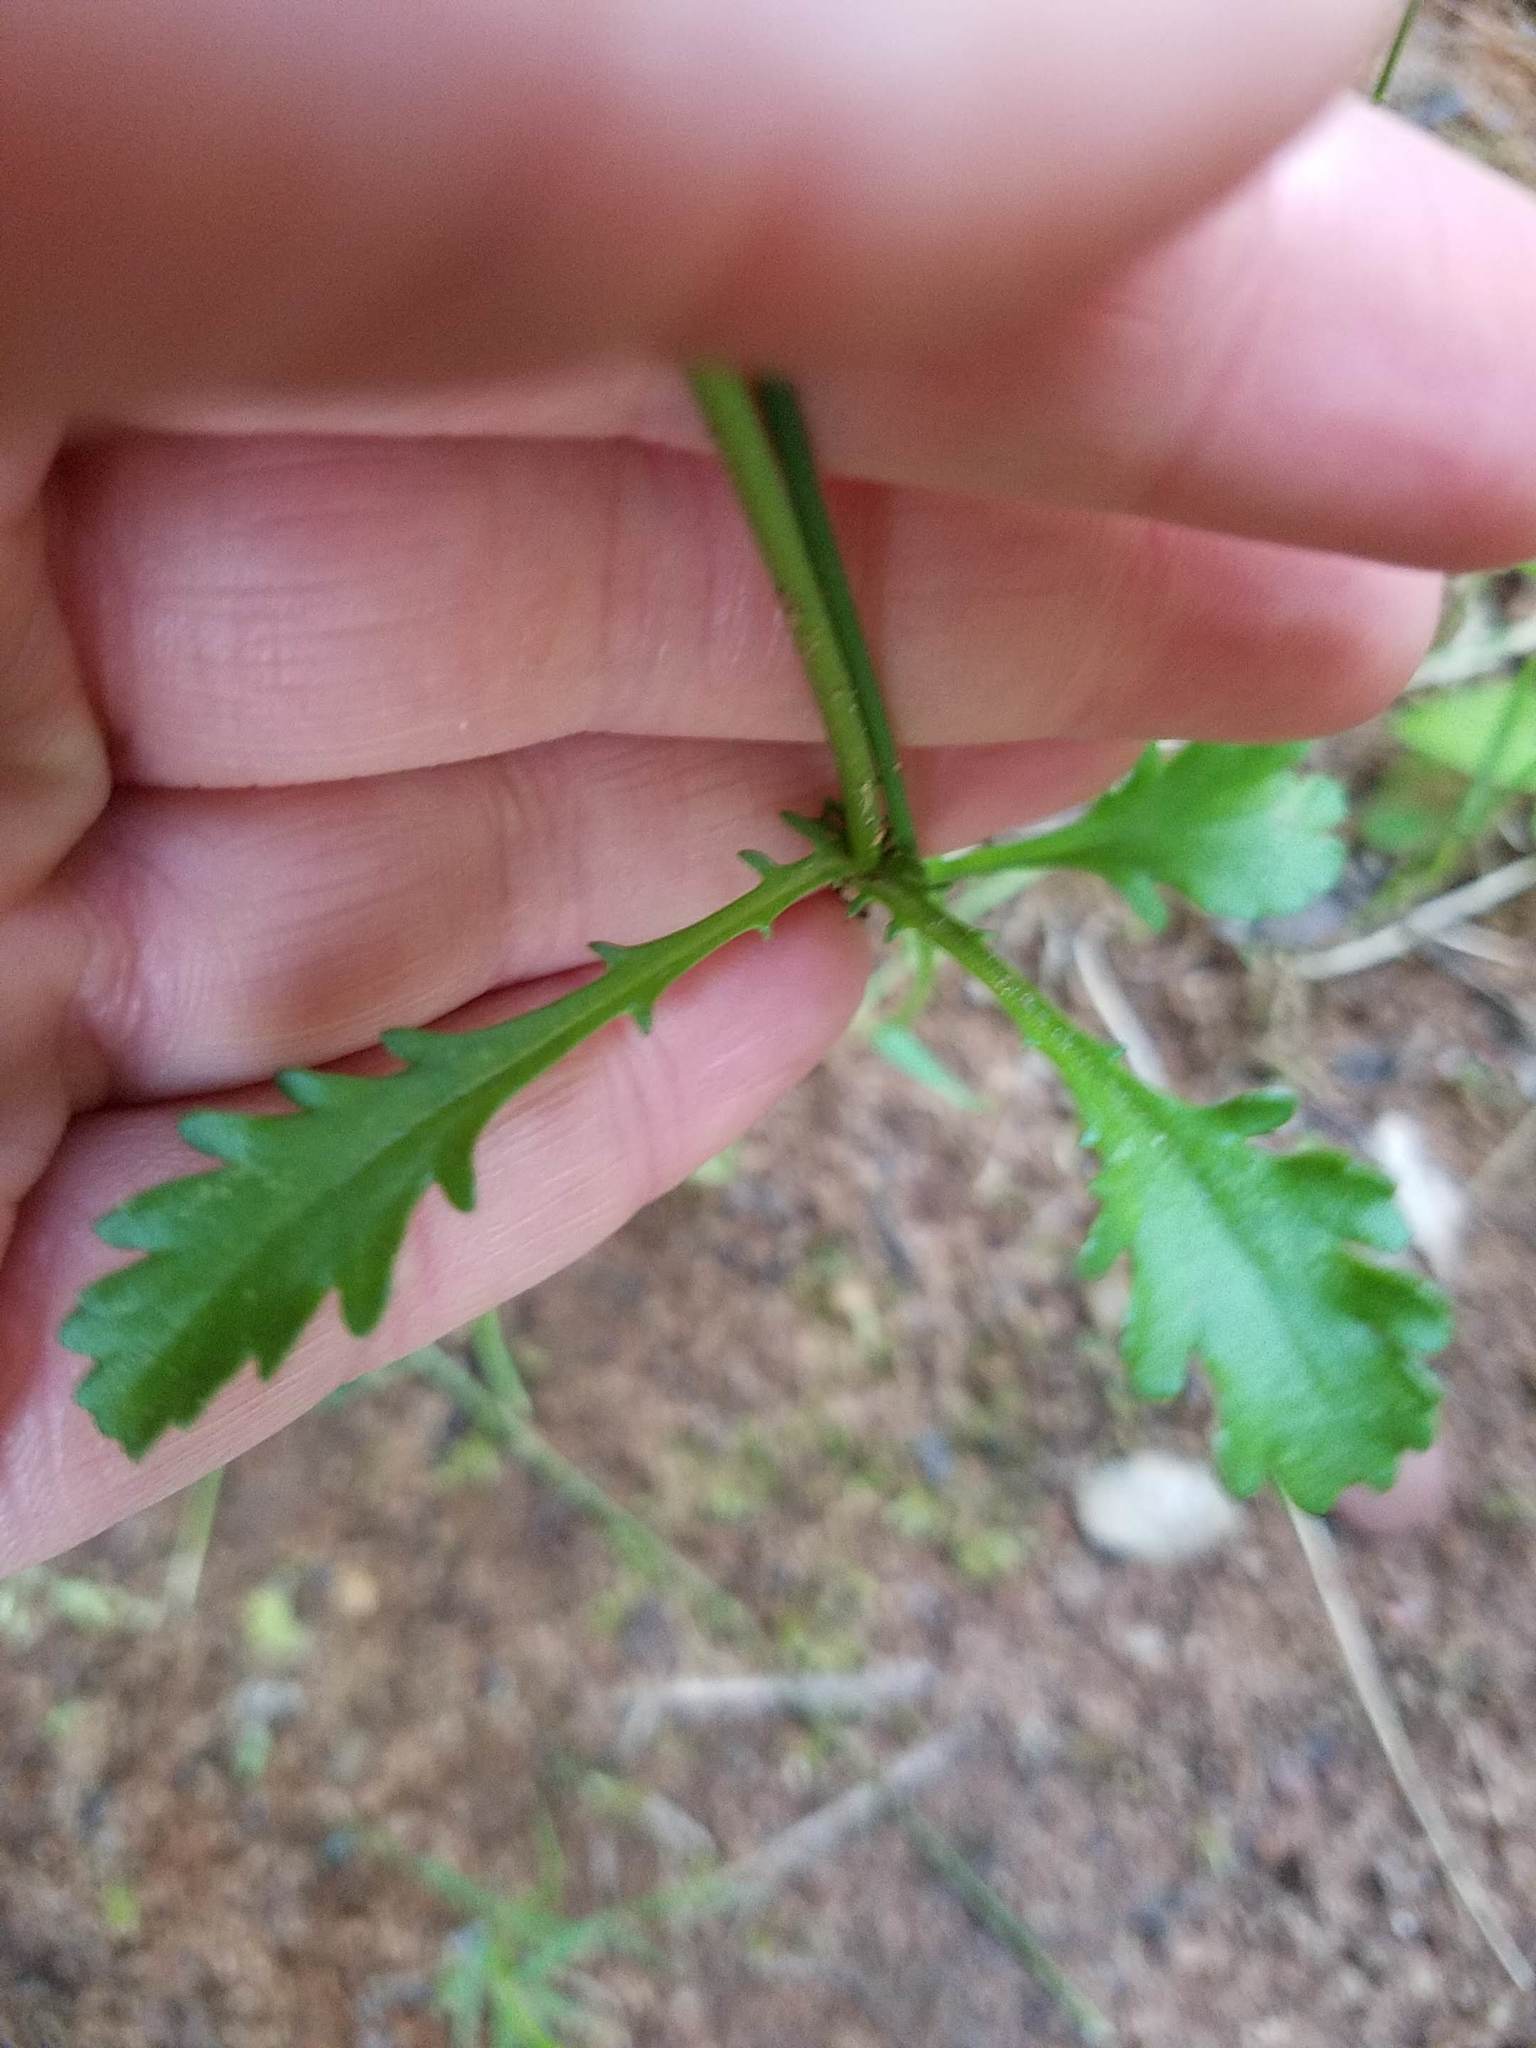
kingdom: Plantae
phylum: Tracheophyta
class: Magnoliopsida
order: Asterales
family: Asteraceae
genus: Leucanthemum
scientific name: Leucanthemum vulgare
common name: Oxeye daisy
